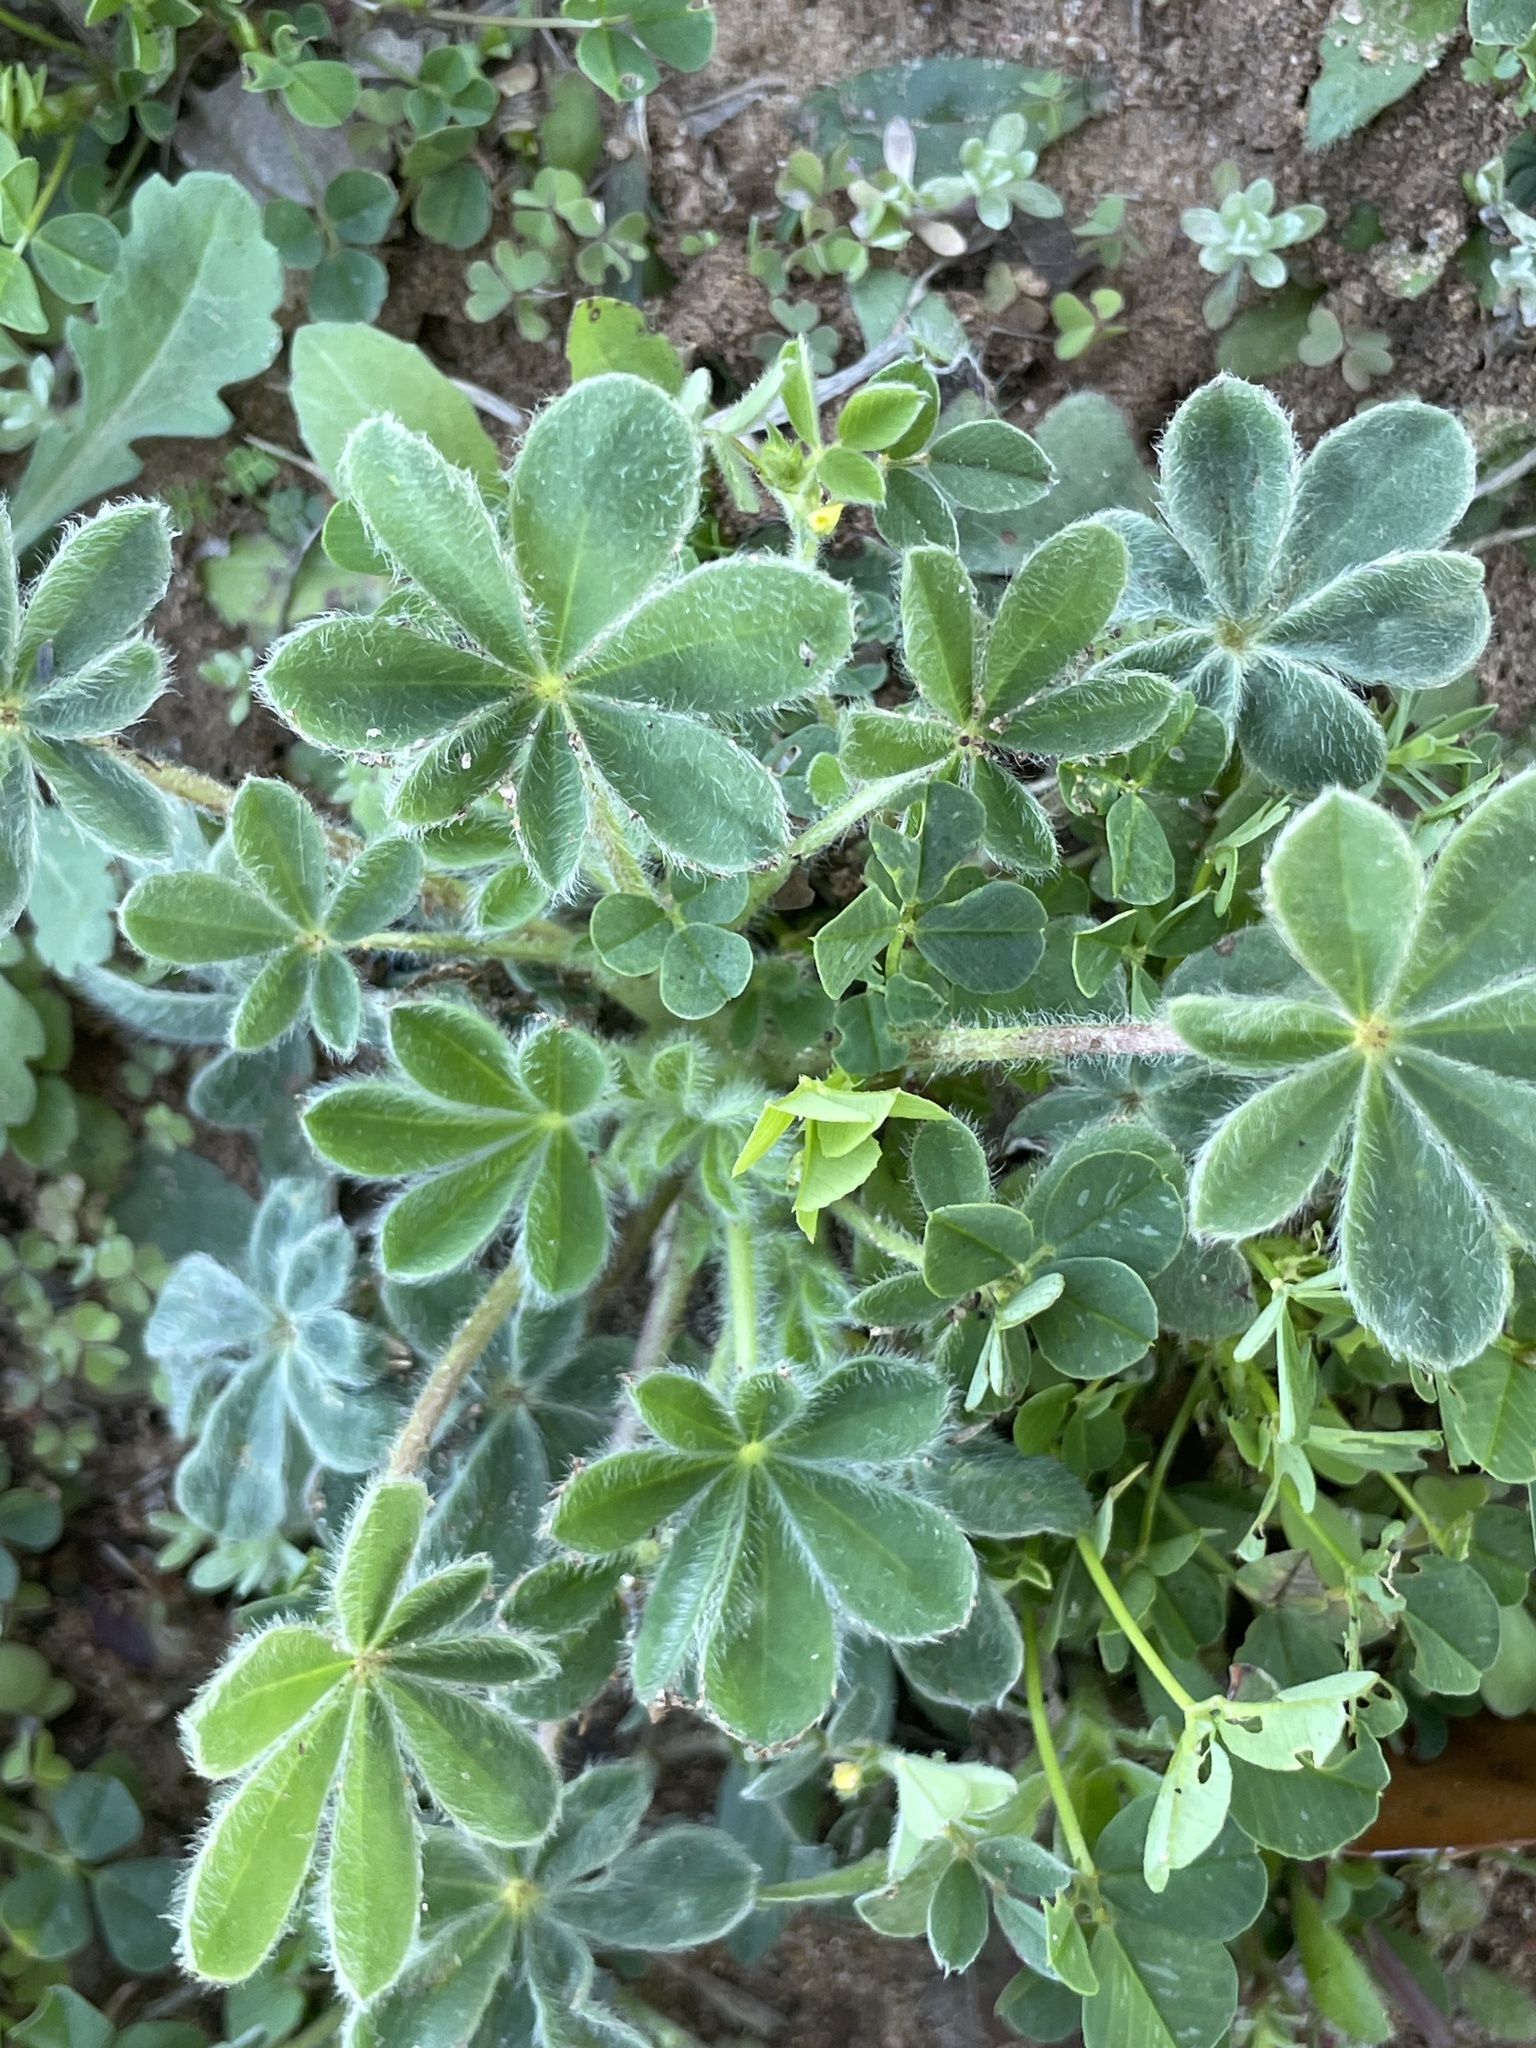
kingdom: Plantae
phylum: Tracheophyta
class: Magnoliopsida
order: Fabales
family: Fabaceae
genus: Lupinus
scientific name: Lupinus subcarnosus
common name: Texas bluebonnet
